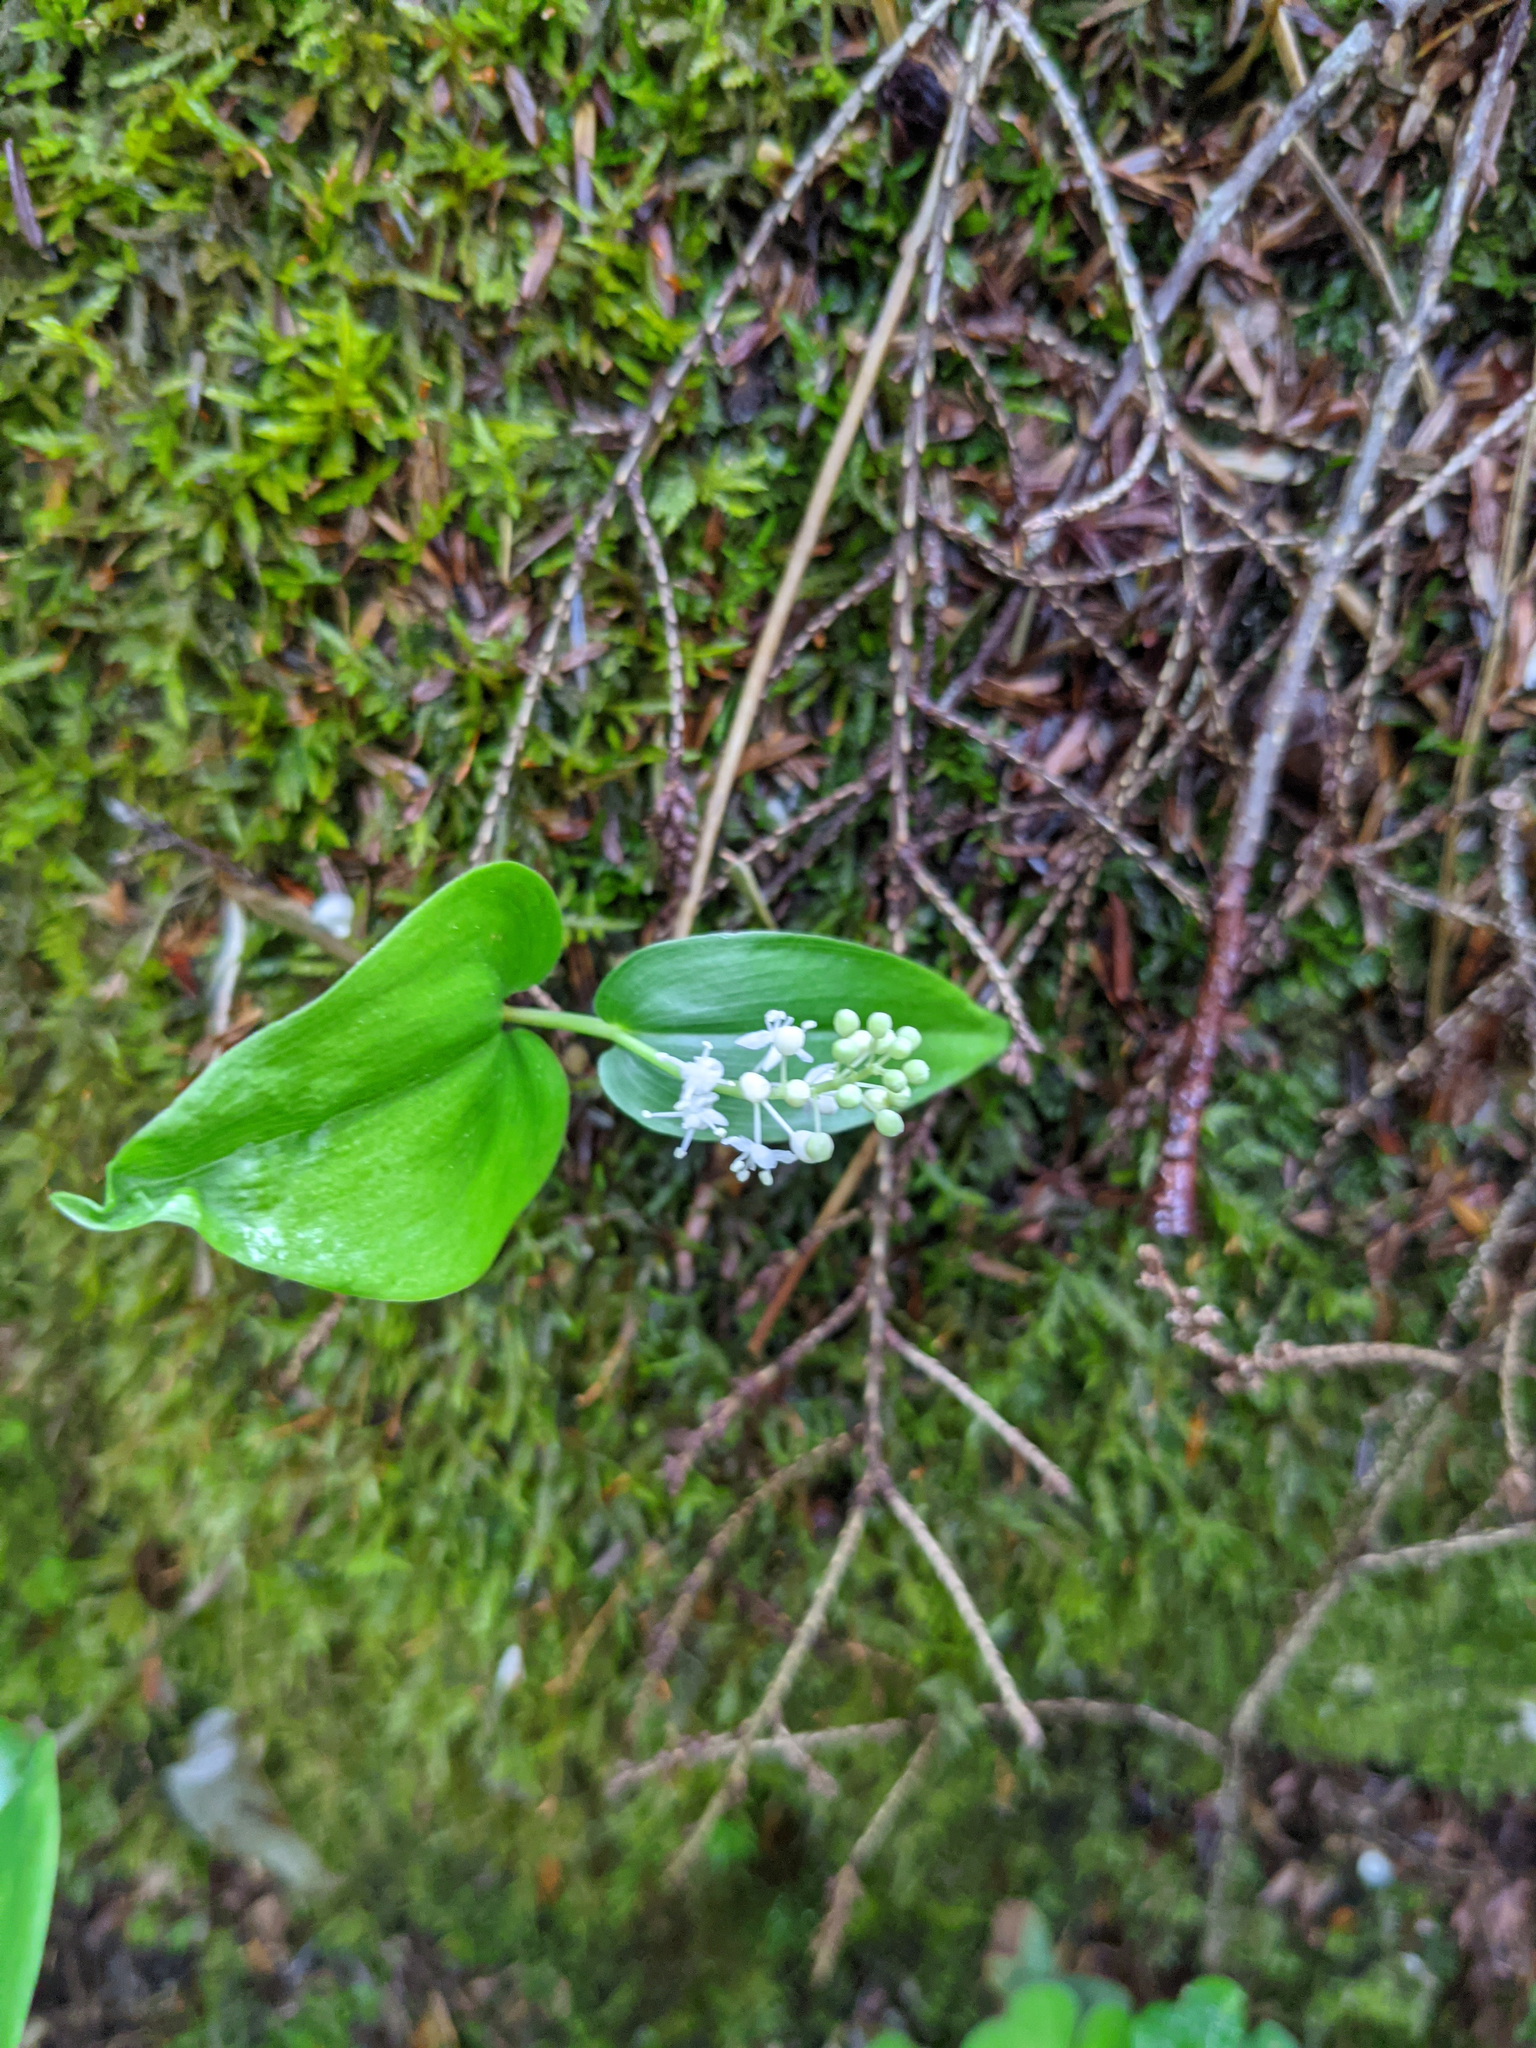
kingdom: Plantae
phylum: Tracheophyta
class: Liliopsida
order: Asparagales
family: Asparagaceae
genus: Maianthemum
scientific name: Maianthemum canadense
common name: False lily-of-the-valley
